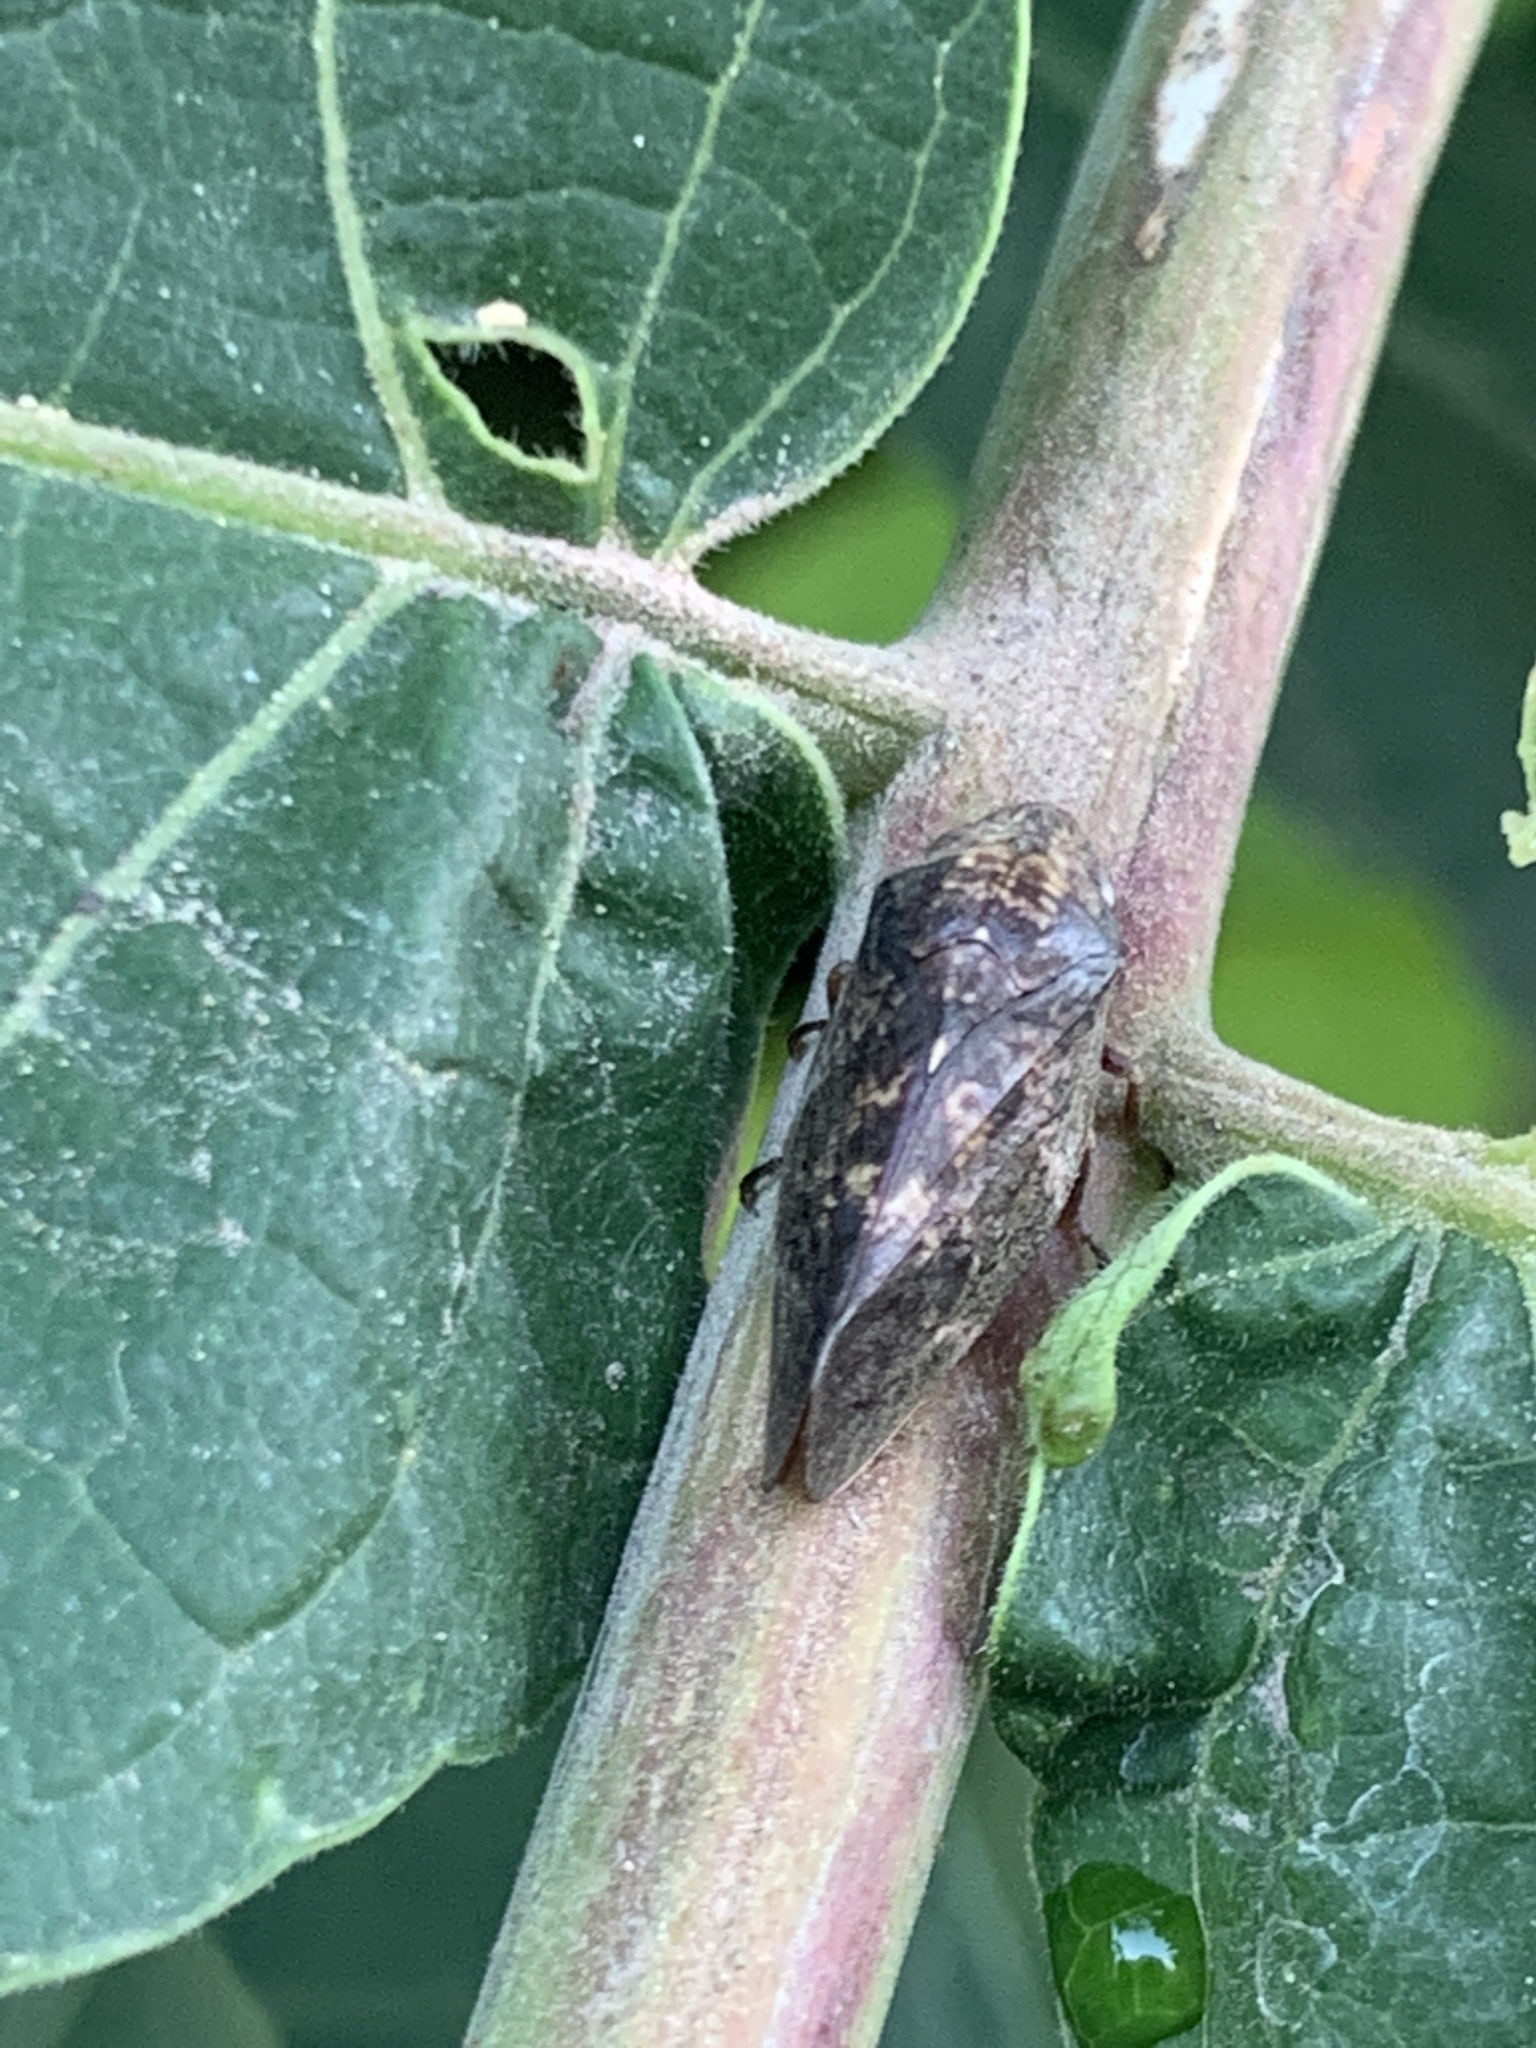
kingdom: Animalia
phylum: Arthropoda
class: Insecta
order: Hemiptera
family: Aphrophoridae
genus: Cephisus
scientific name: Cephisus siccifolius
